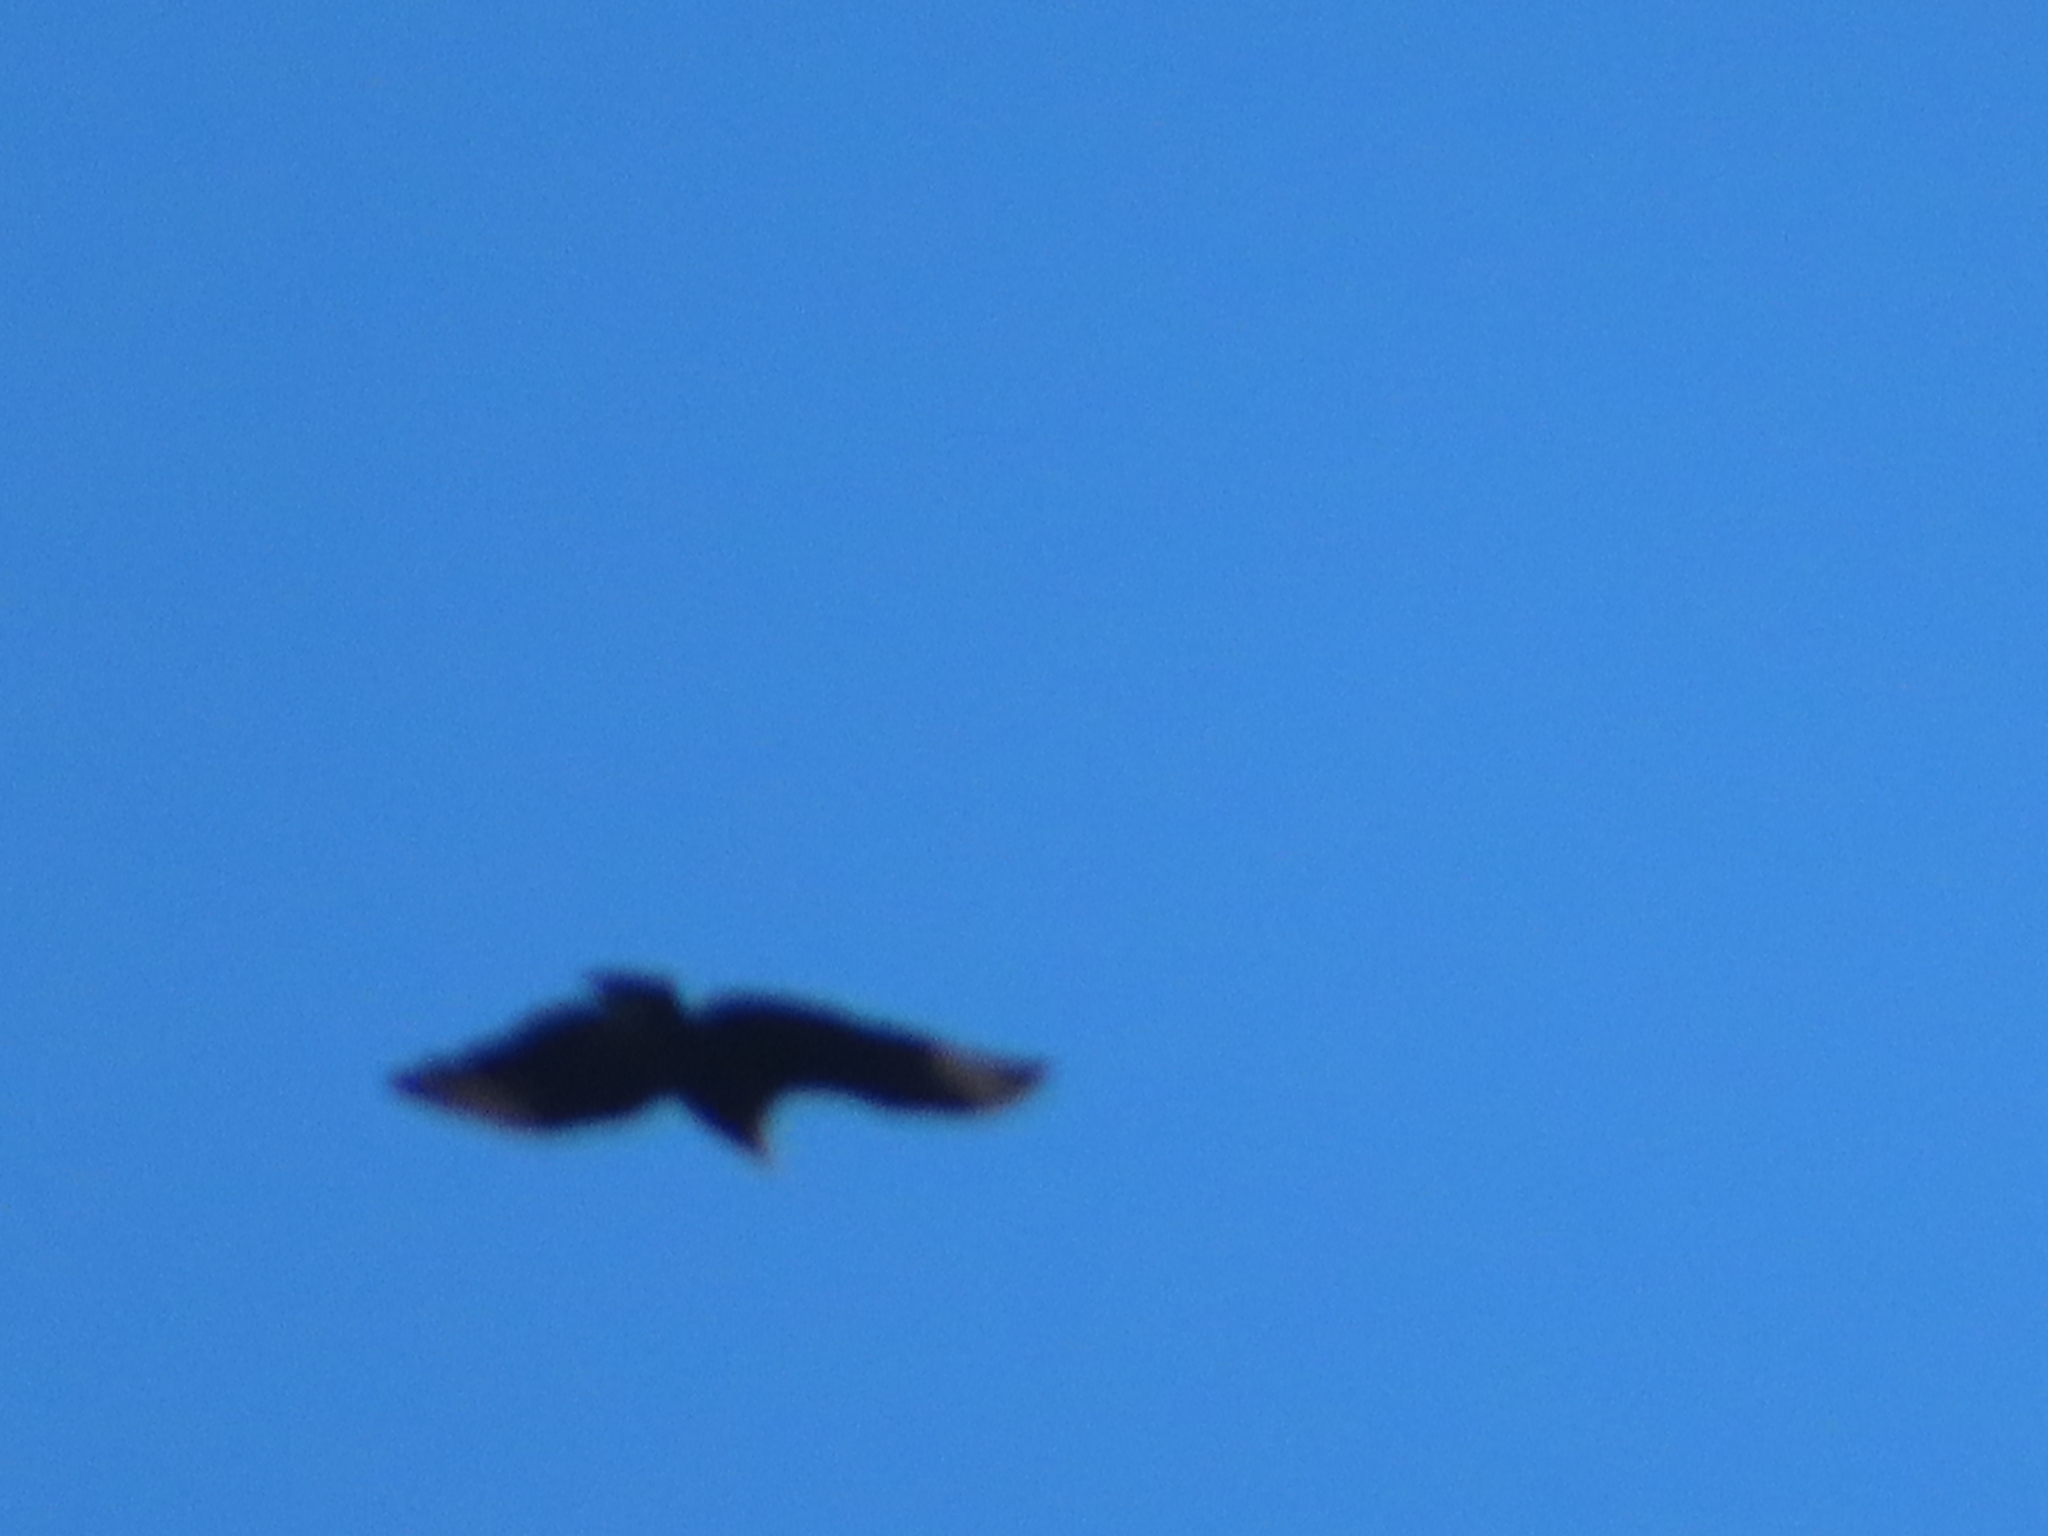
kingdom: Animalia
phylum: Chordata
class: Aves
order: Accipitriformes
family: Cathartidae
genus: Coragyps
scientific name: Coragyps atratus
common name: Black vulture
